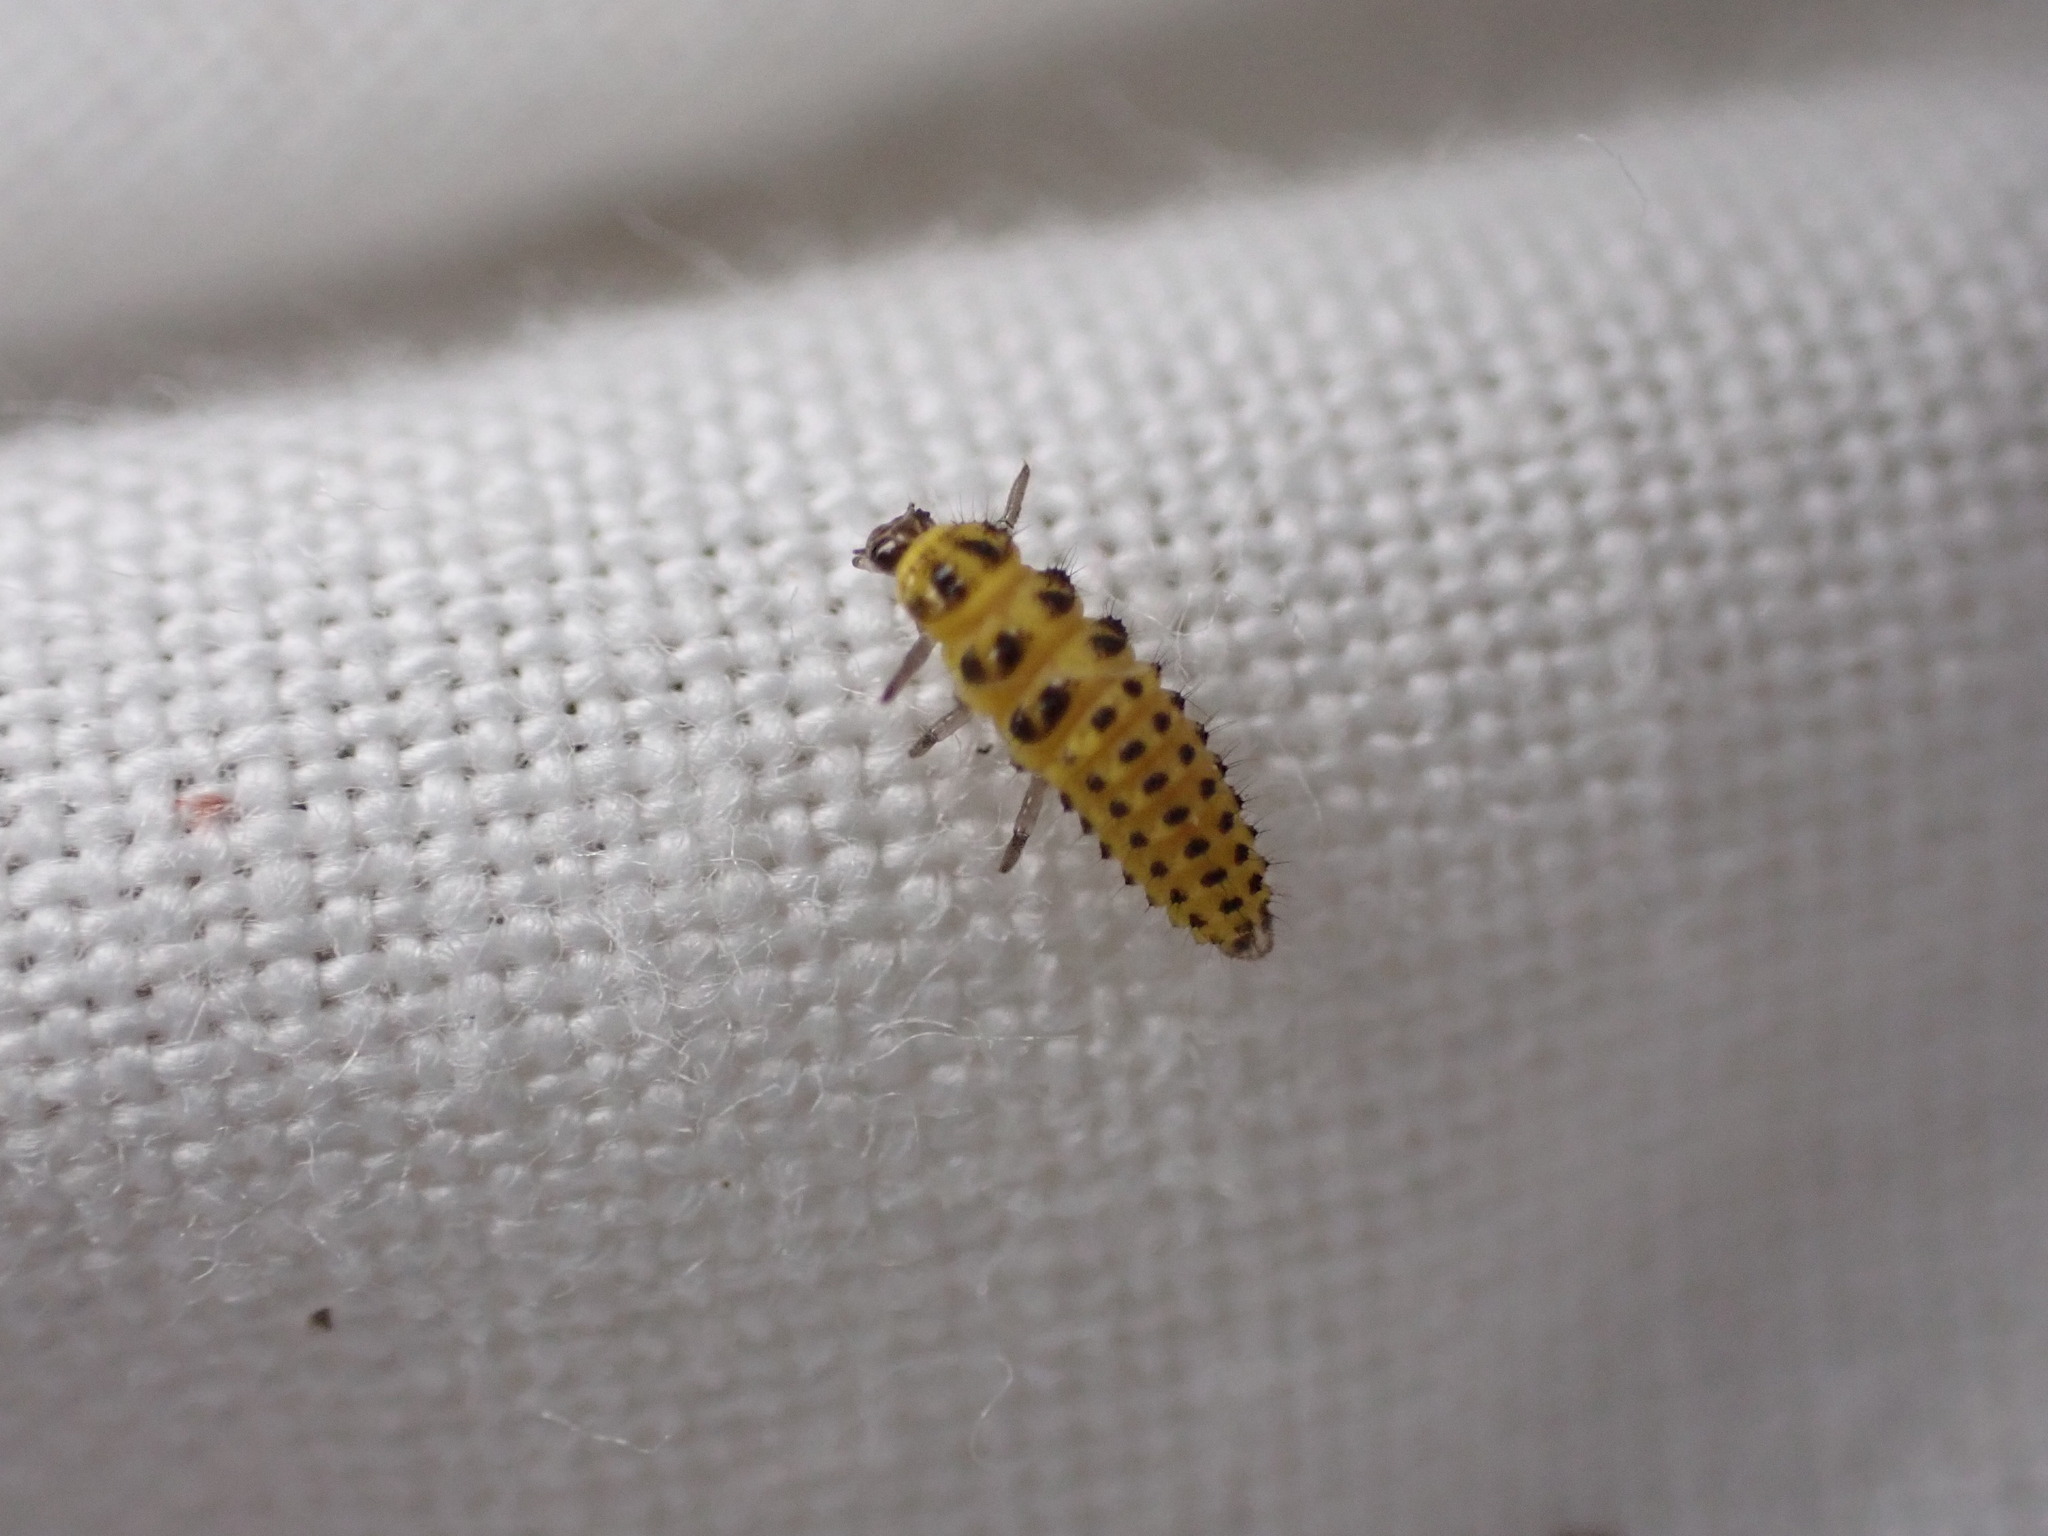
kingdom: Animalia
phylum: Arthropoda
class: Insecta
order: Coleoptera
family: Coccinellidae
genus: Psyllobora
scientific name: Psyllobora vigintiduopunctata
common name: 22-spot ladybird
